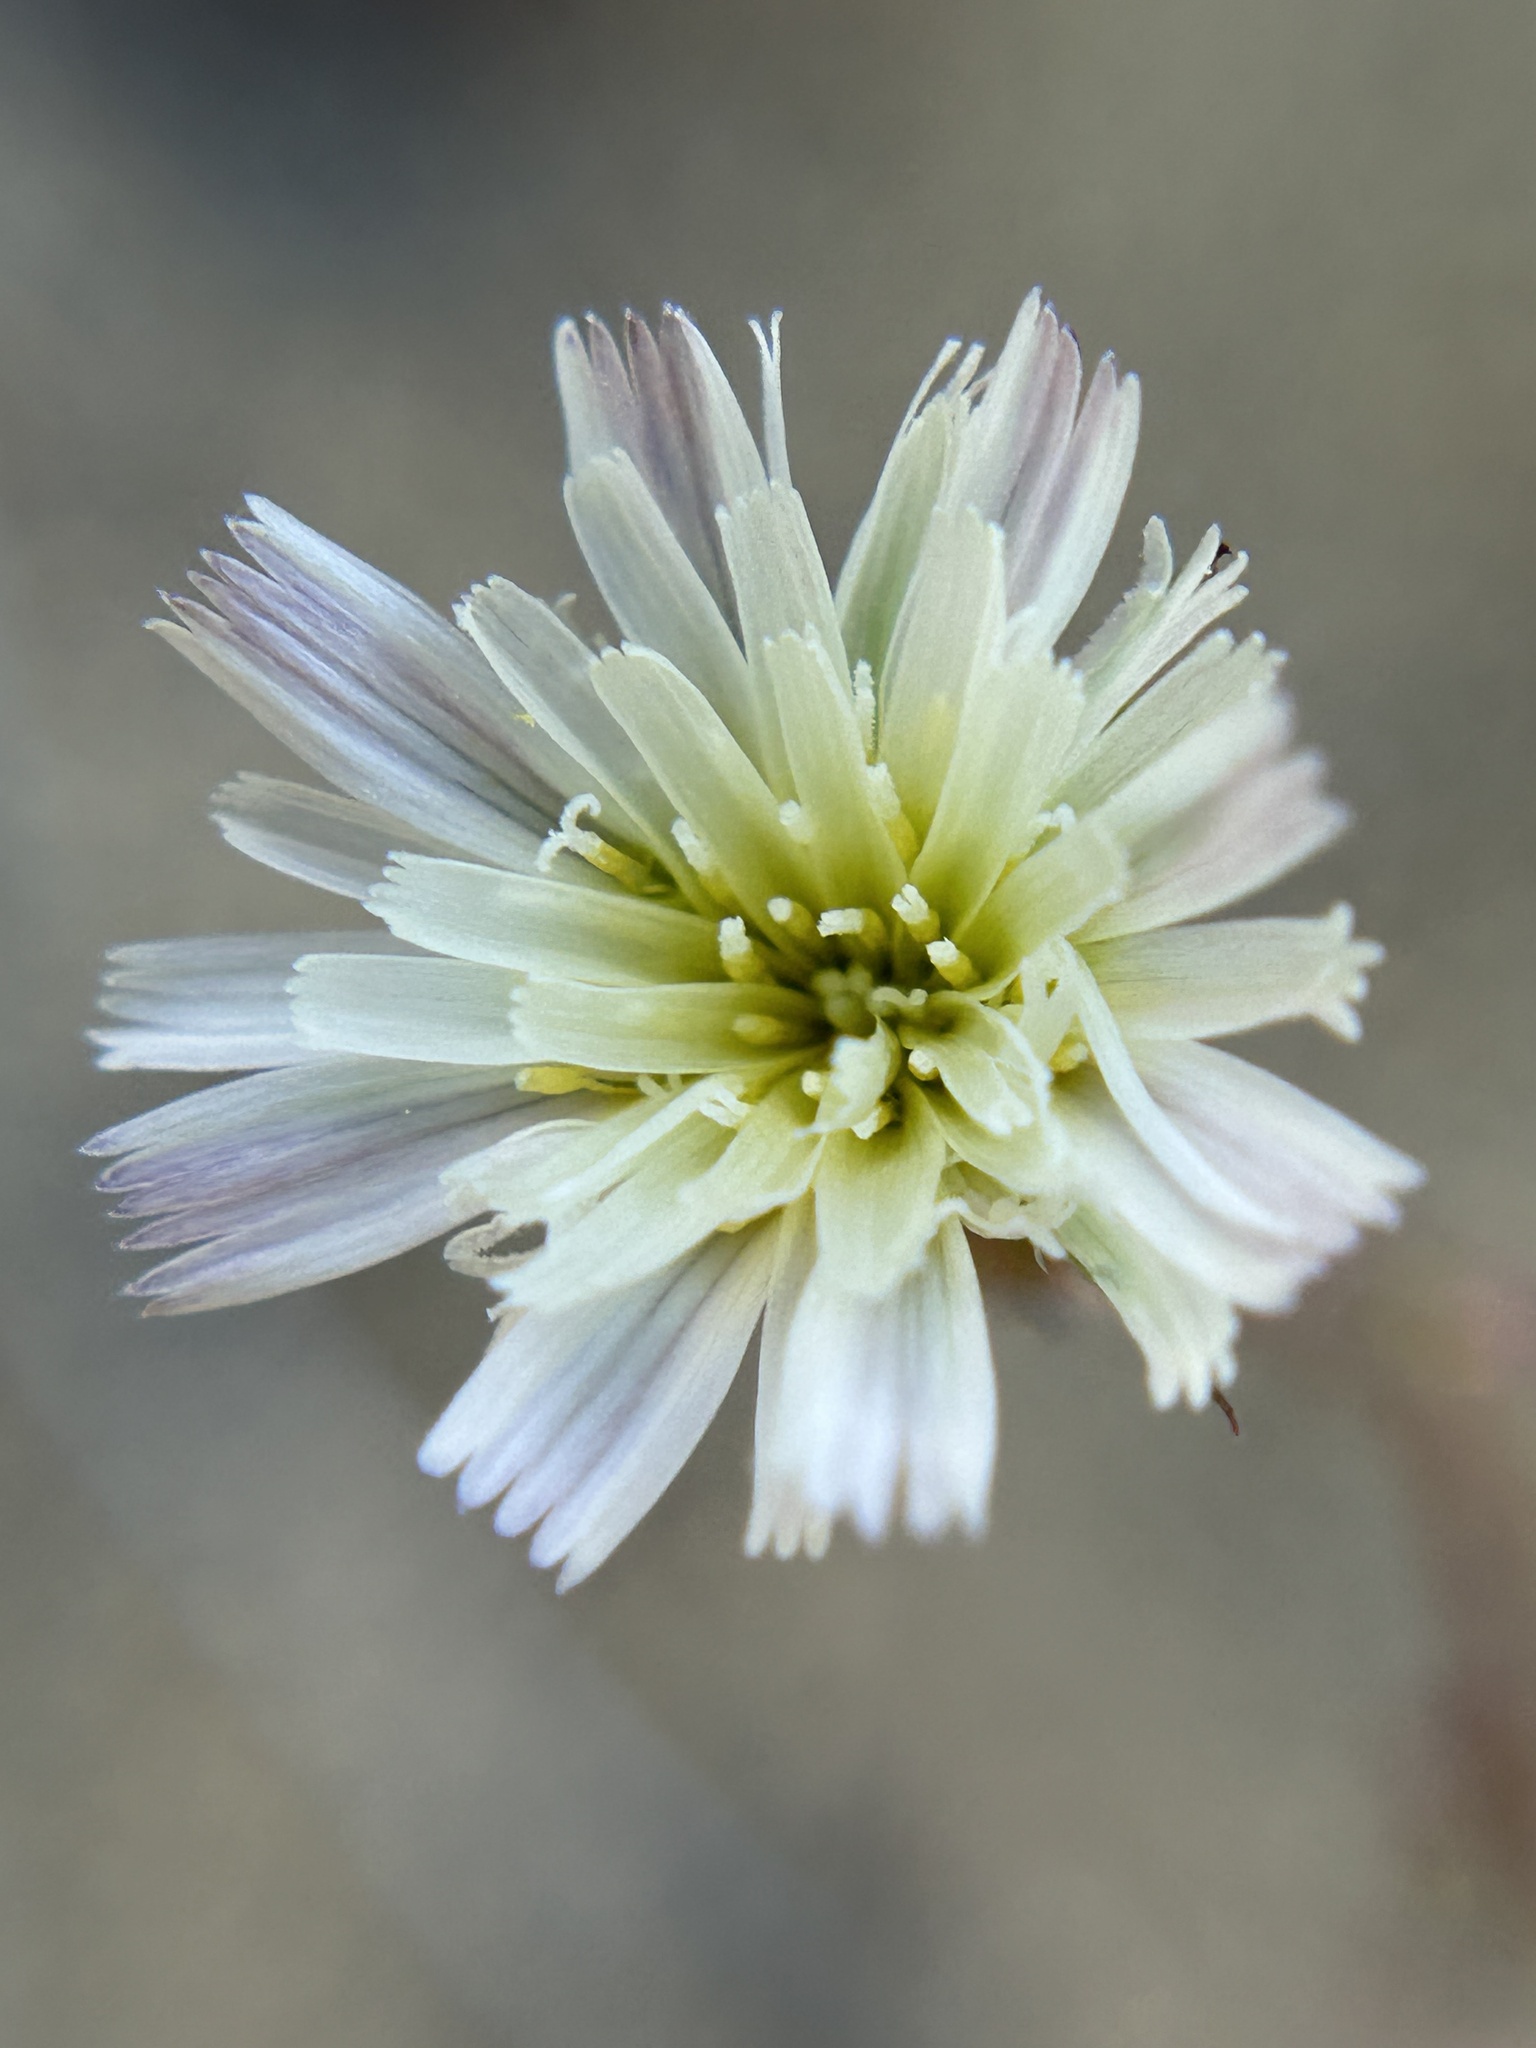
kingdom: Plantae
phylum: Tracheophyta
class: Magnoliopsida
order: Asterales
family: Asteraceae
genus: Rafinesquia
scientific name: Rafinesquia californica
